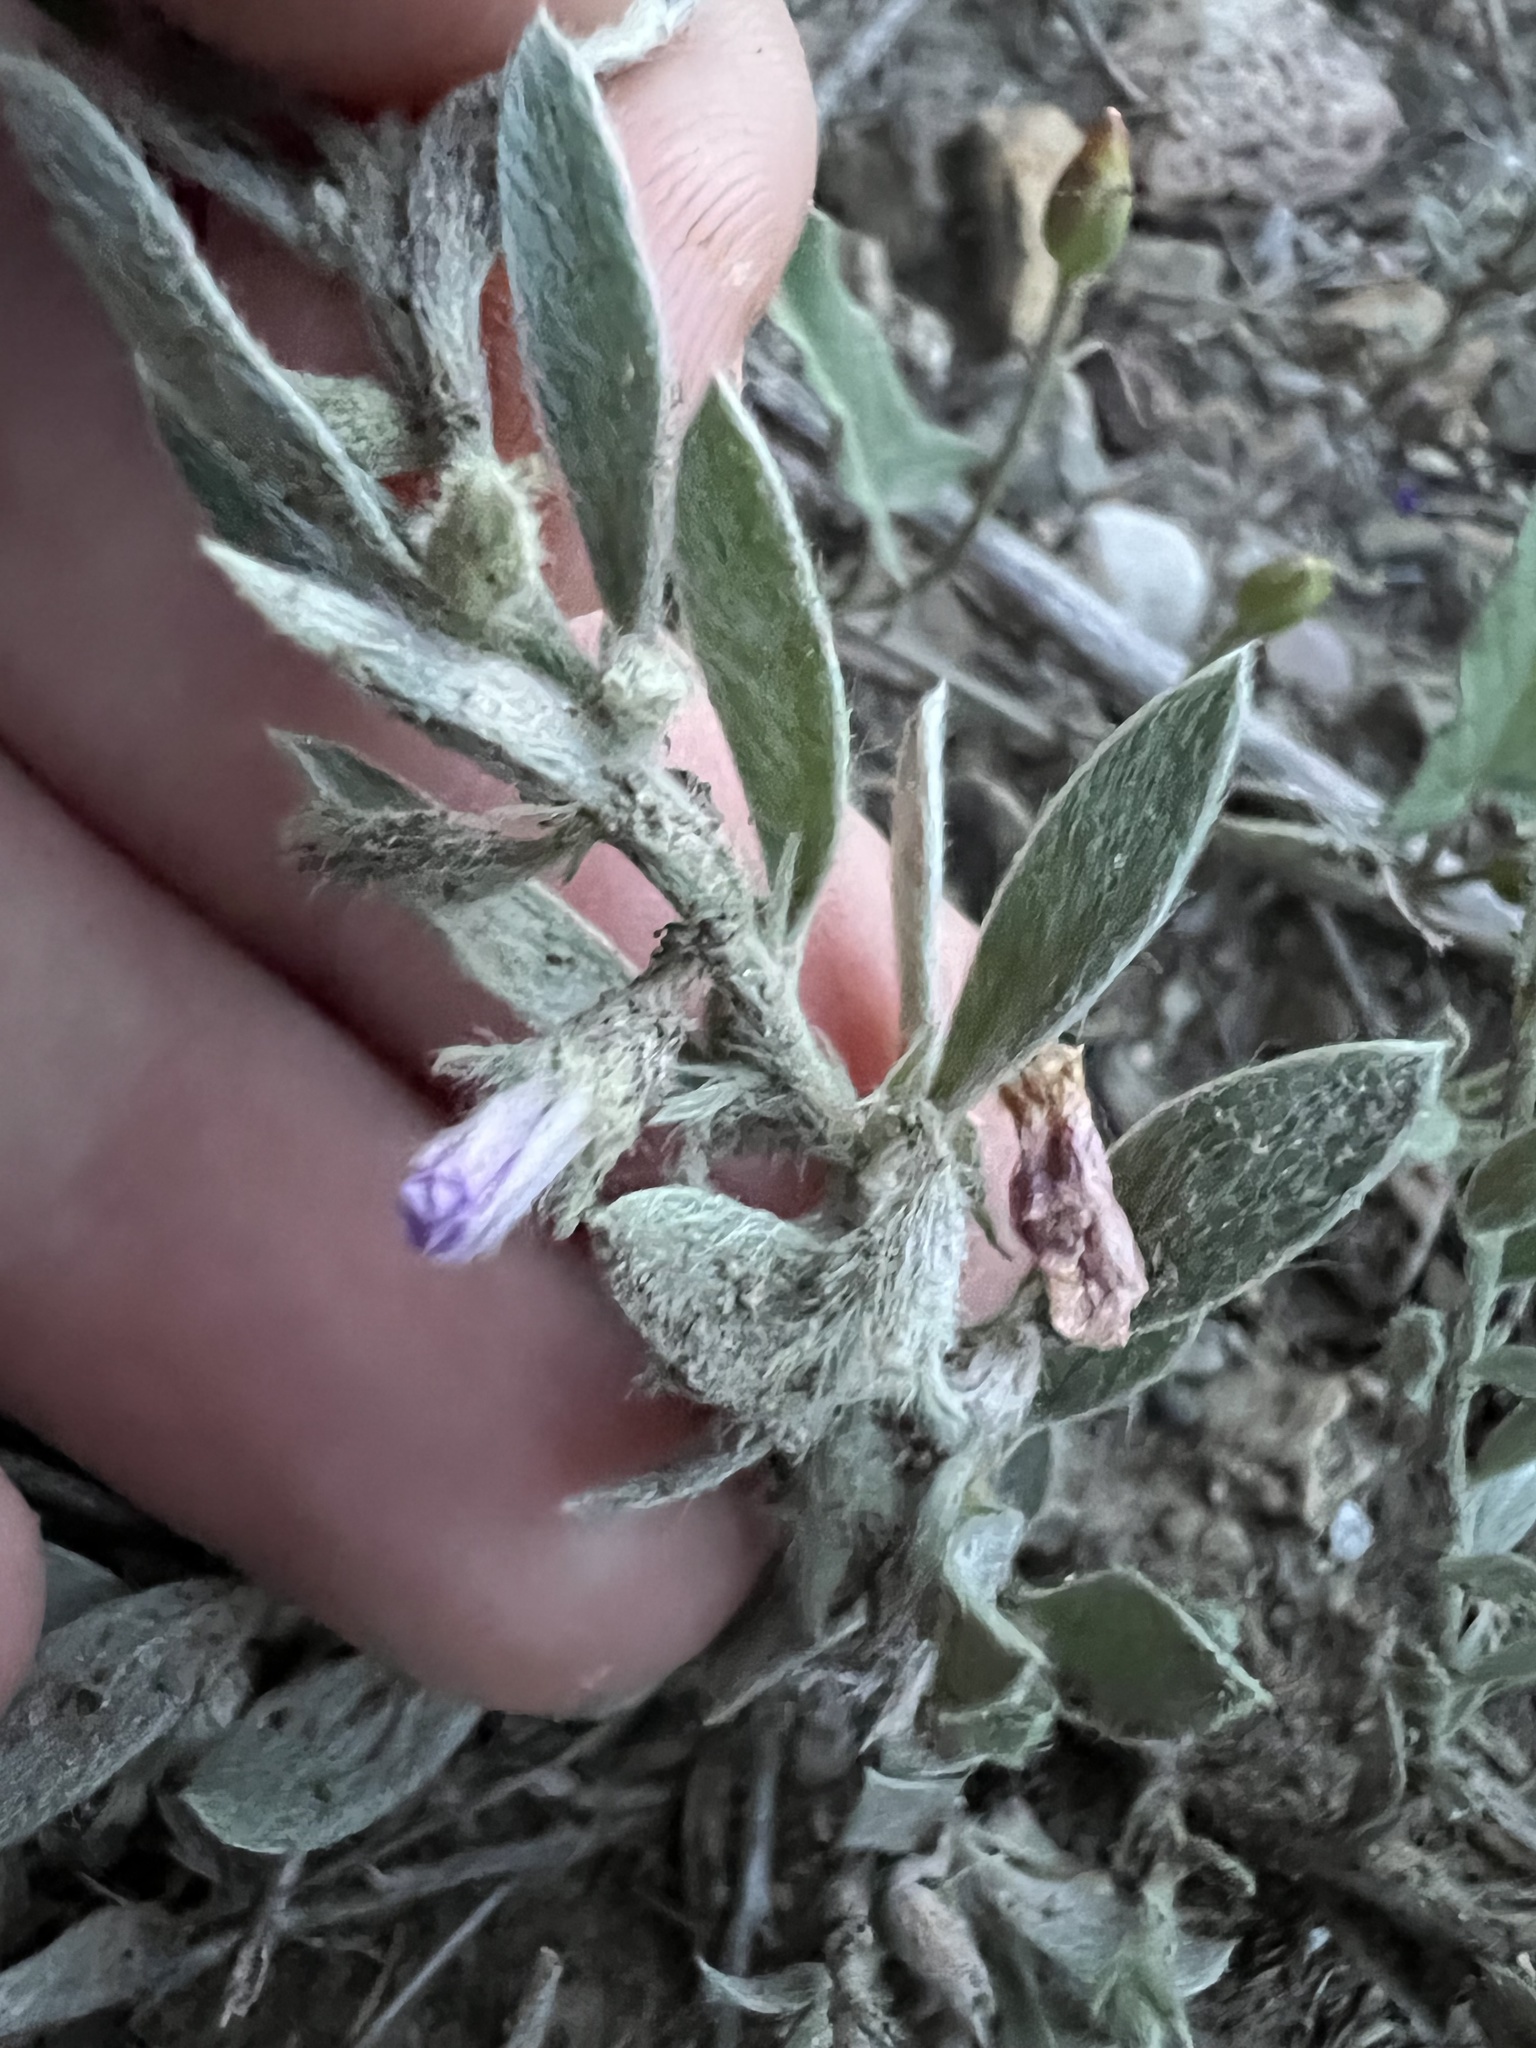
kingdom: Plantae
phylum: Tracheophyta
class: Magnoliopsida
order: Solanales
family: Convolvulaceae
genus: Evolvulus
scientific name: Evolvulus nuttallianus
